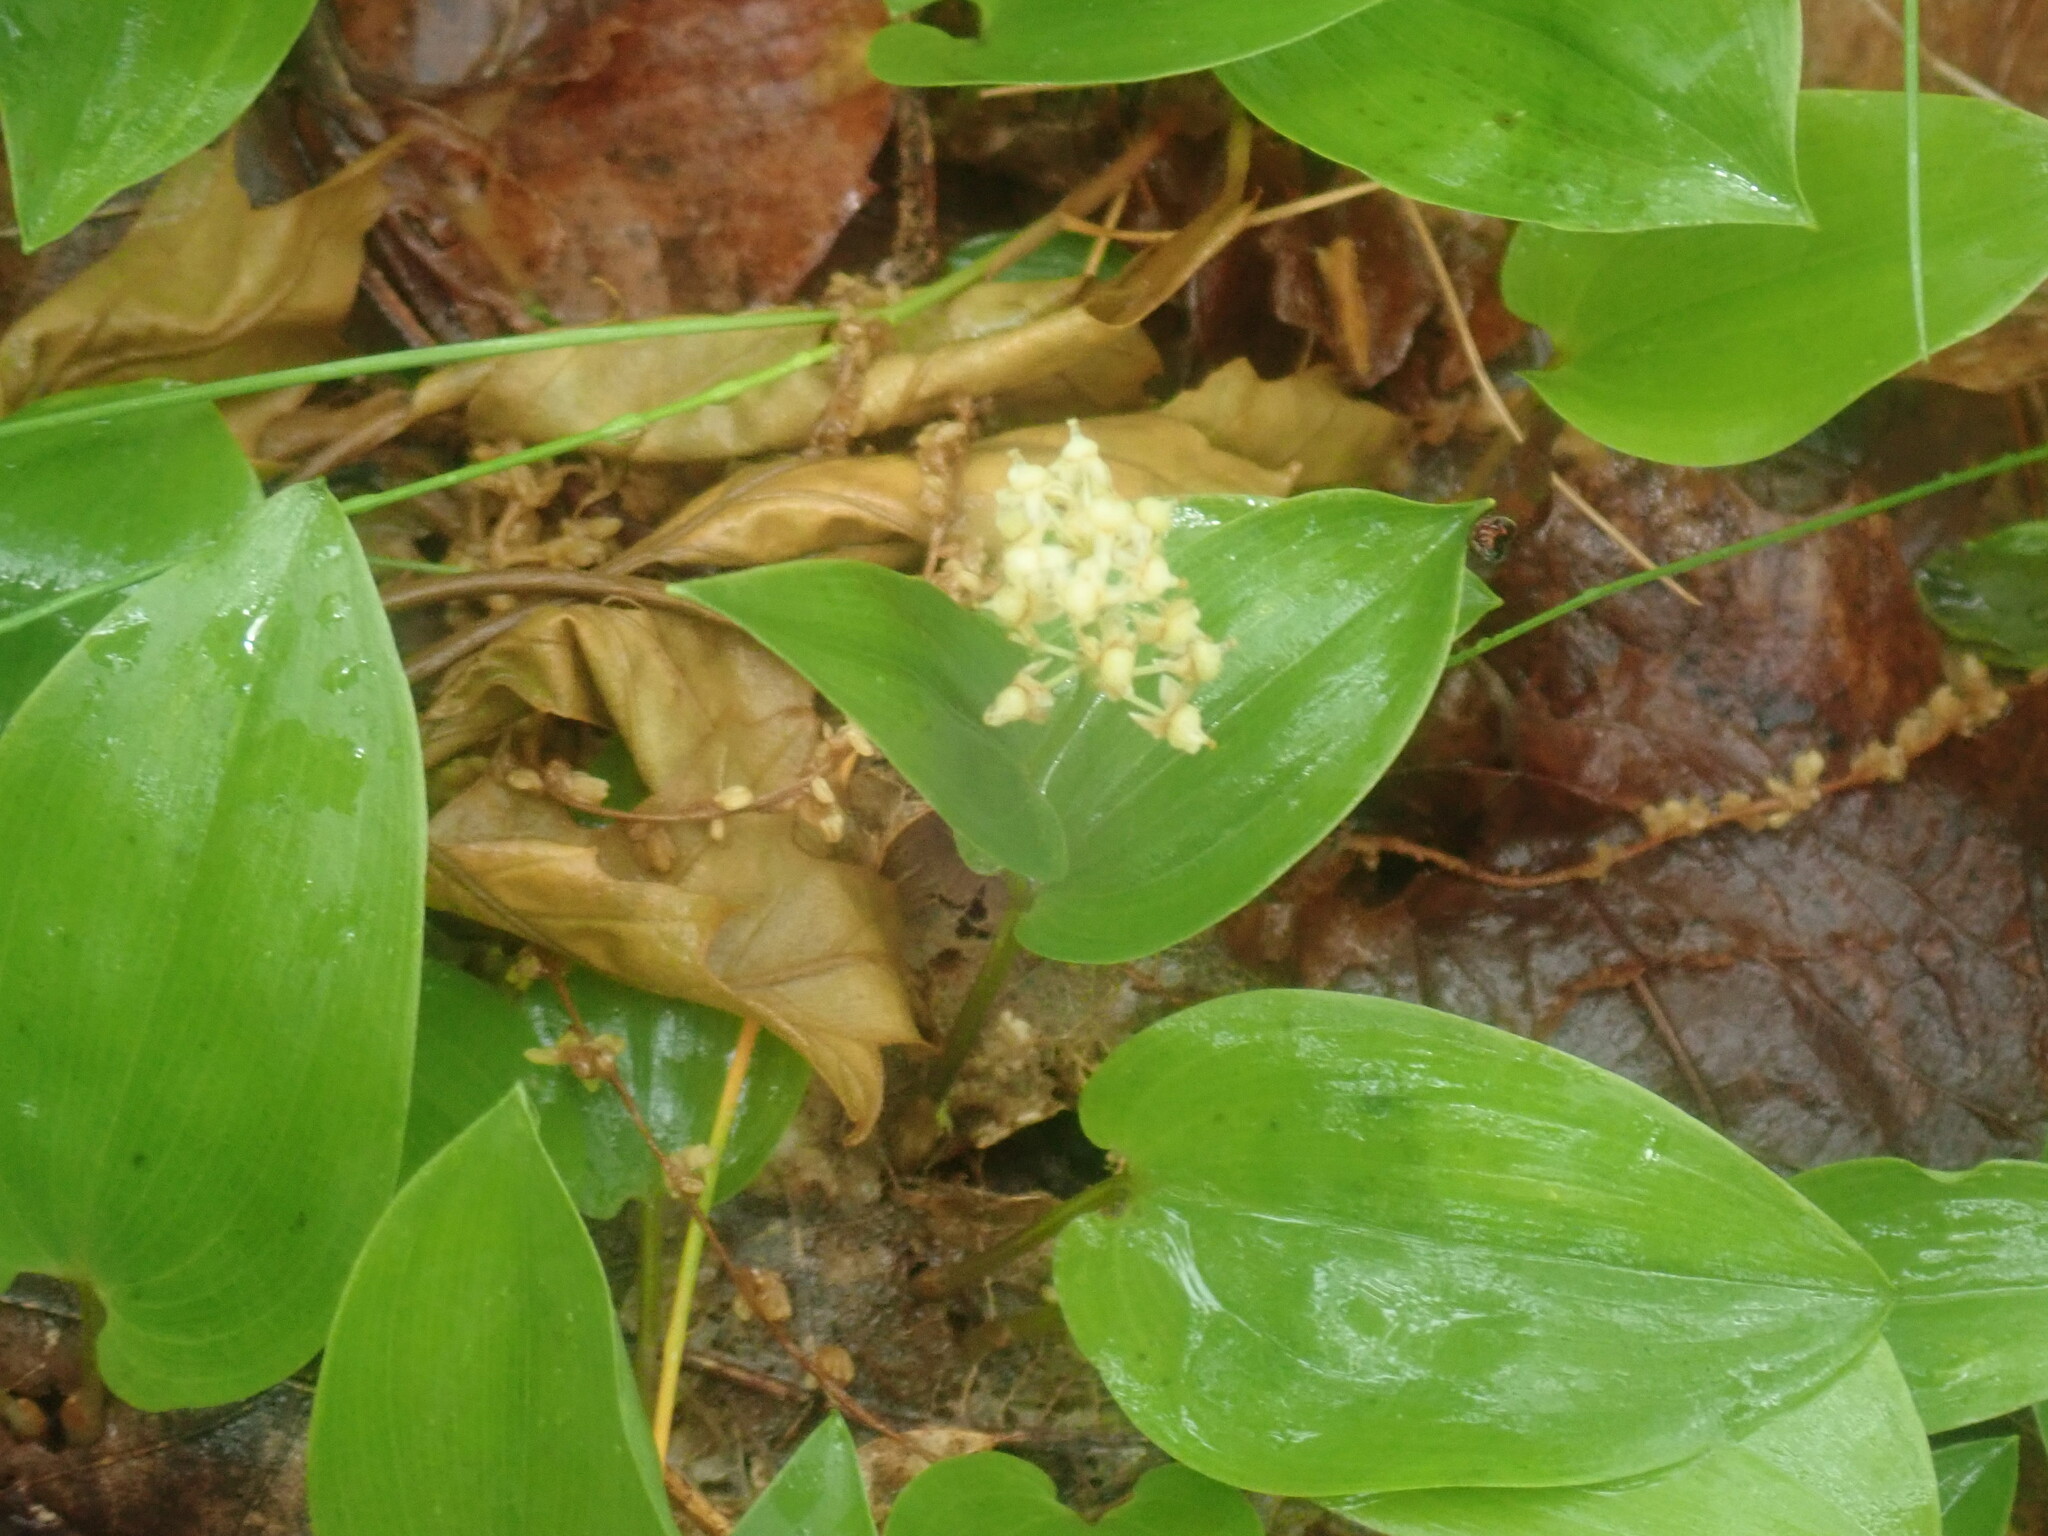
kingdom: Plantae
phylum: Tracheophyta
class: Liliopsida
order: Asparagales
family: Asparagaceae
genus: Maianthemum
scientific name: Maianthemum canadense
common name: False lily-of-the-valley
